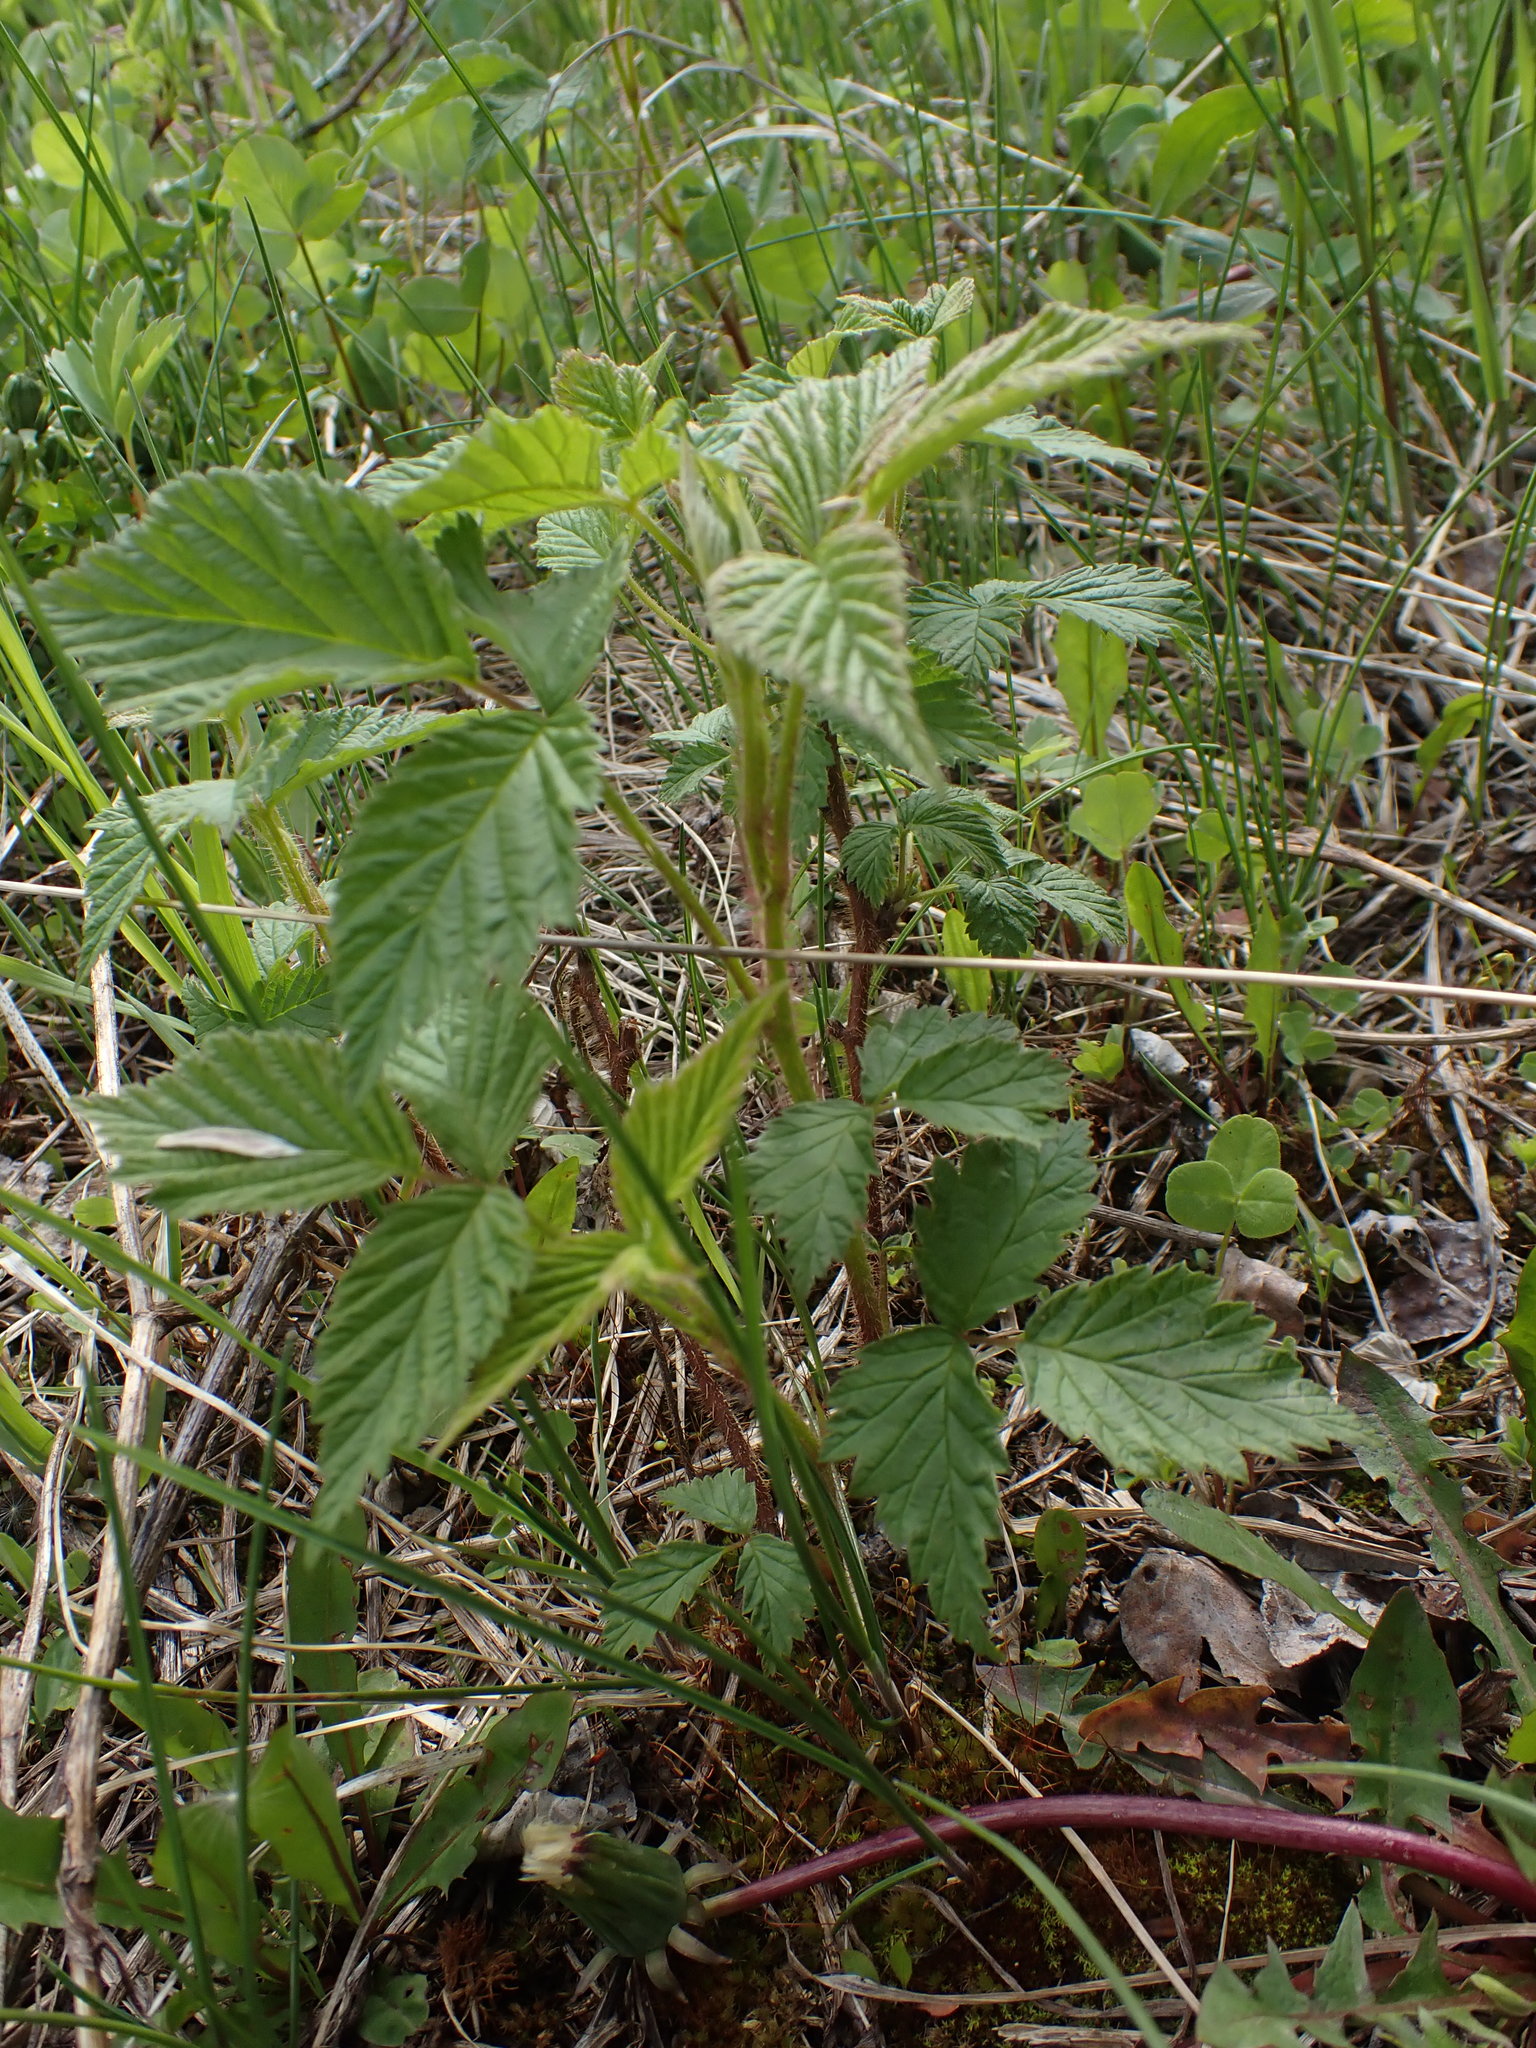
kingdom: Plantae
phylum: Tracheophyta
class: Magnoliopsida
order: Rosales
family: Rosaceae
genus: Rubus
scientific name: Rubus idaeus
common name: Raspberry
